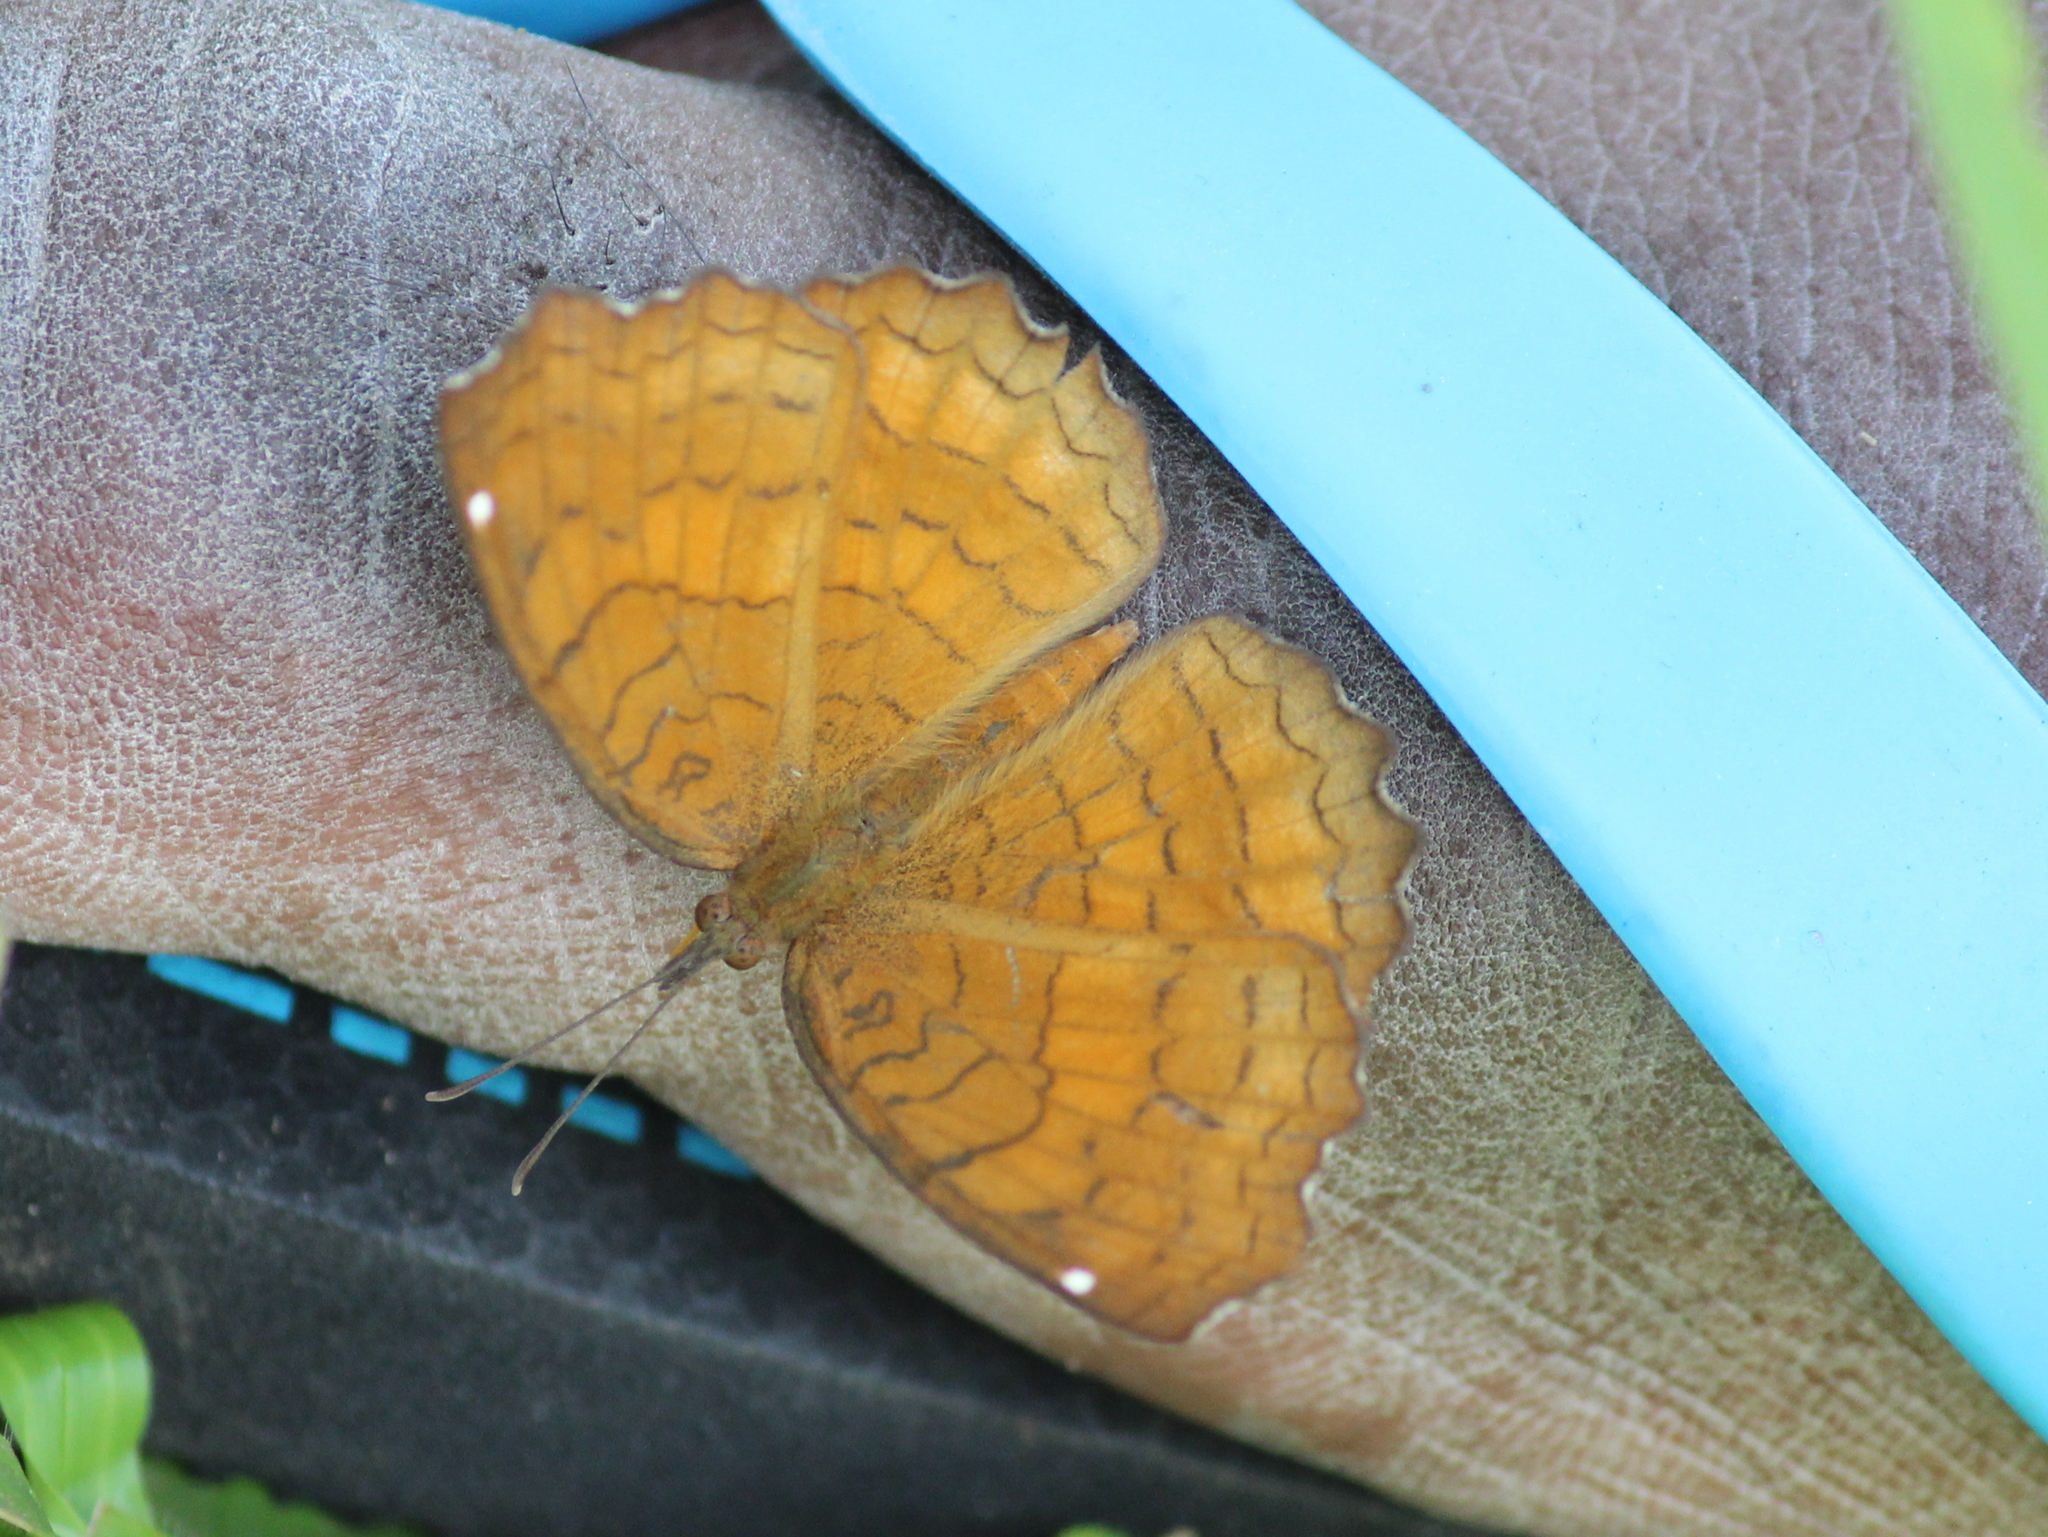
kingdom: Animalia
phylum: Arthropoda
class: Insecta
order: Lepidoptera
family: Nymphalidae
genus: Ariadne
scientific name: Ariadne ariadne
